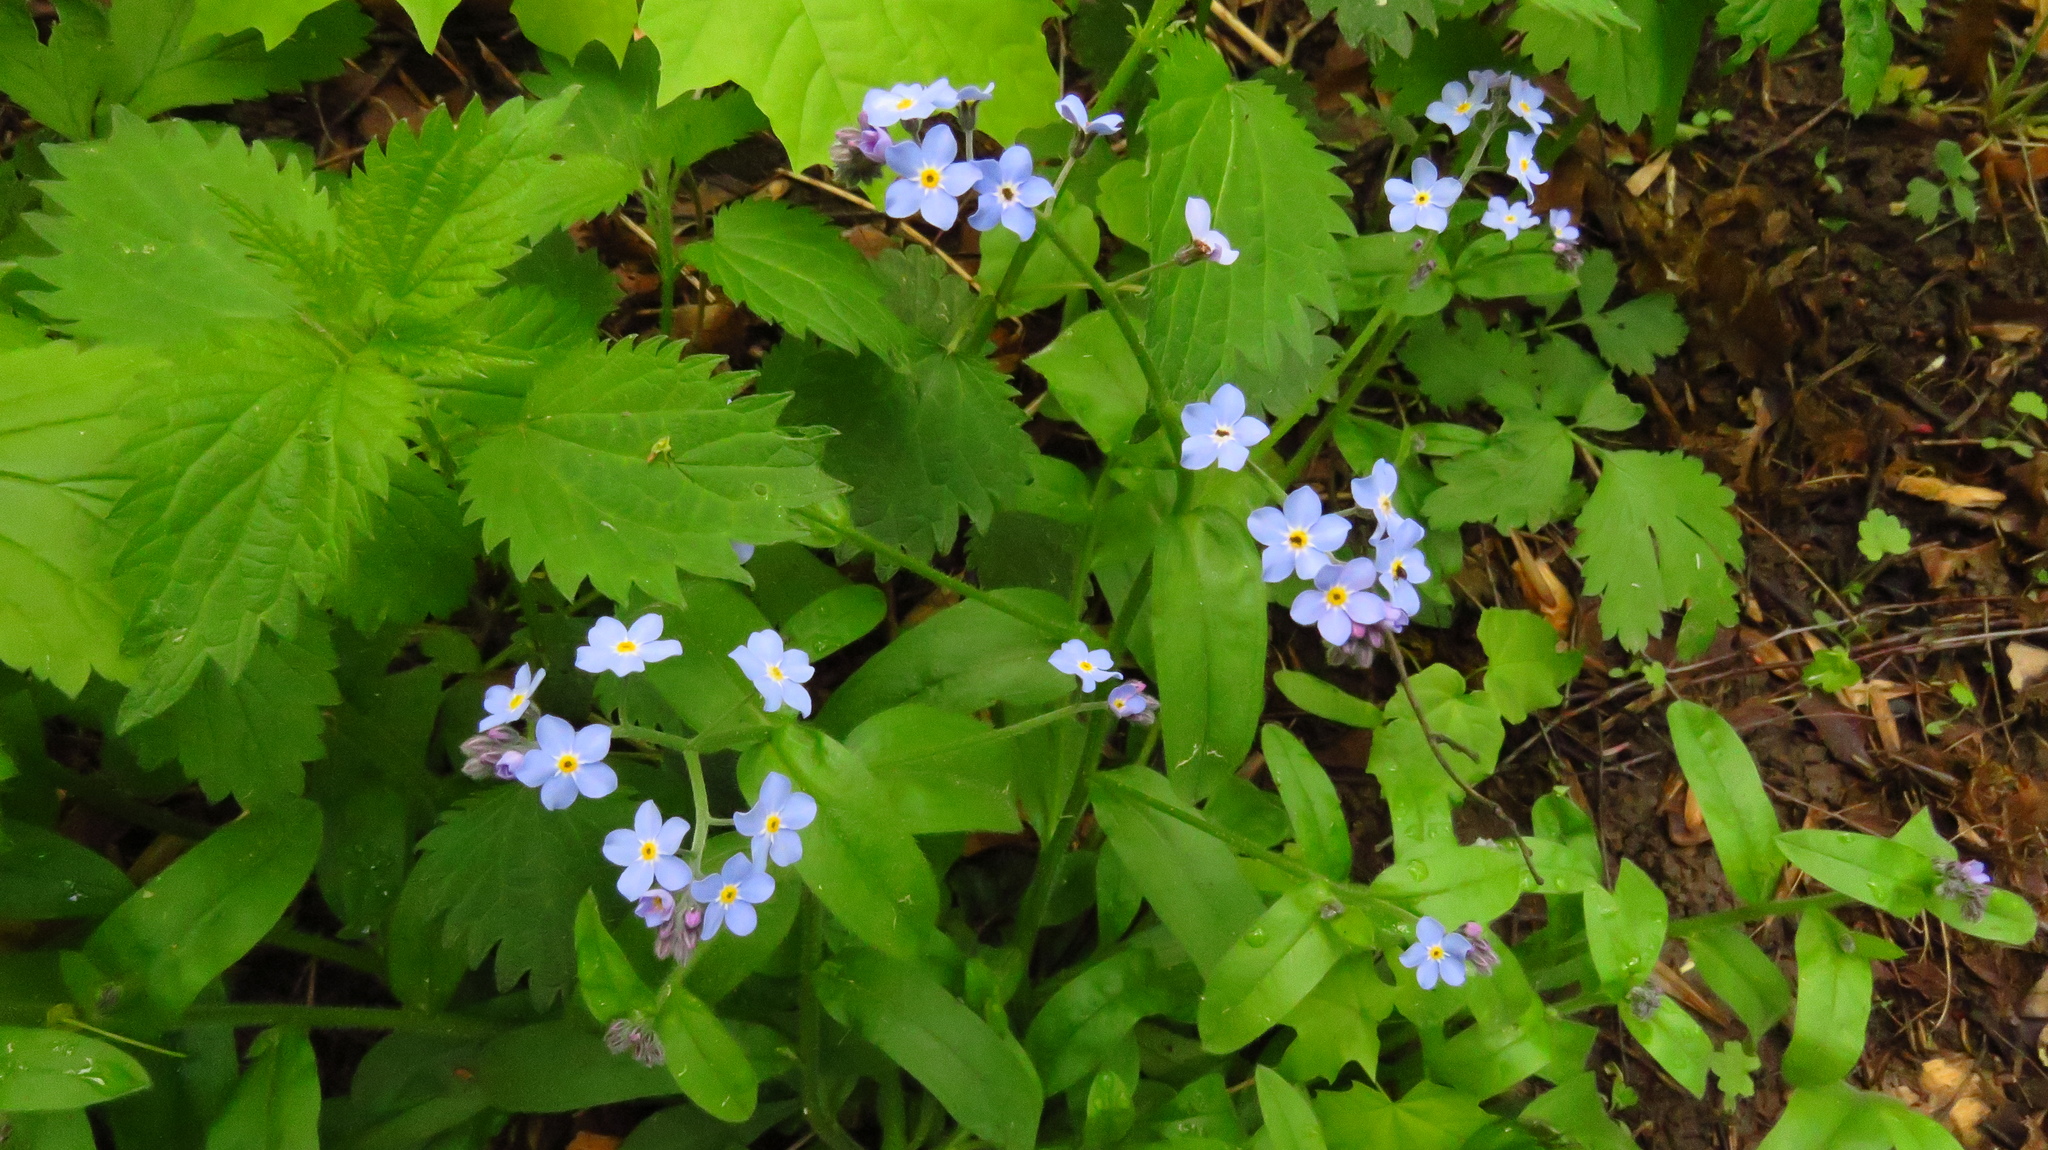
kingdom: Plantae
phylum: Tracheophyta
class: Magnoliopsida
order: Boraginales
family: Boraginaceae
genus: Myosotis
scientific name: Myosotis sylvatica
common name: Wood forget-me-not
